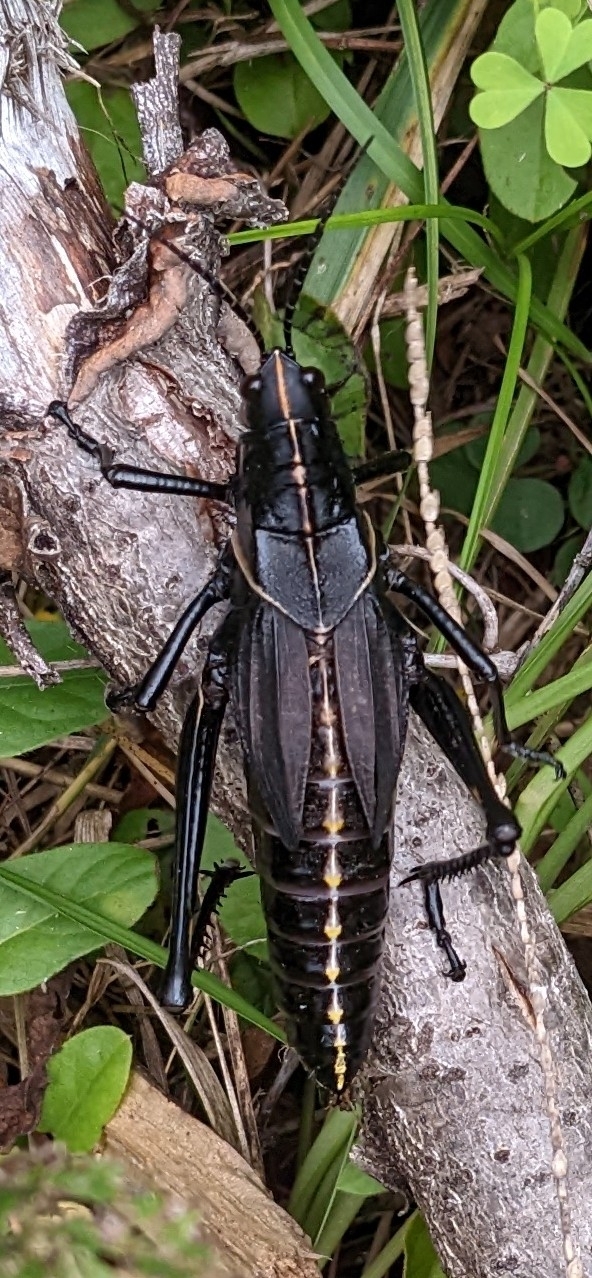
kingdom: Animalia
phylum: Arthropoda
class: Insecta
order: Orthoptera
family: Romaleidae
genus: Romalea
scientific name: Romalea microptera
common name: Eastern lubber grasshopper
